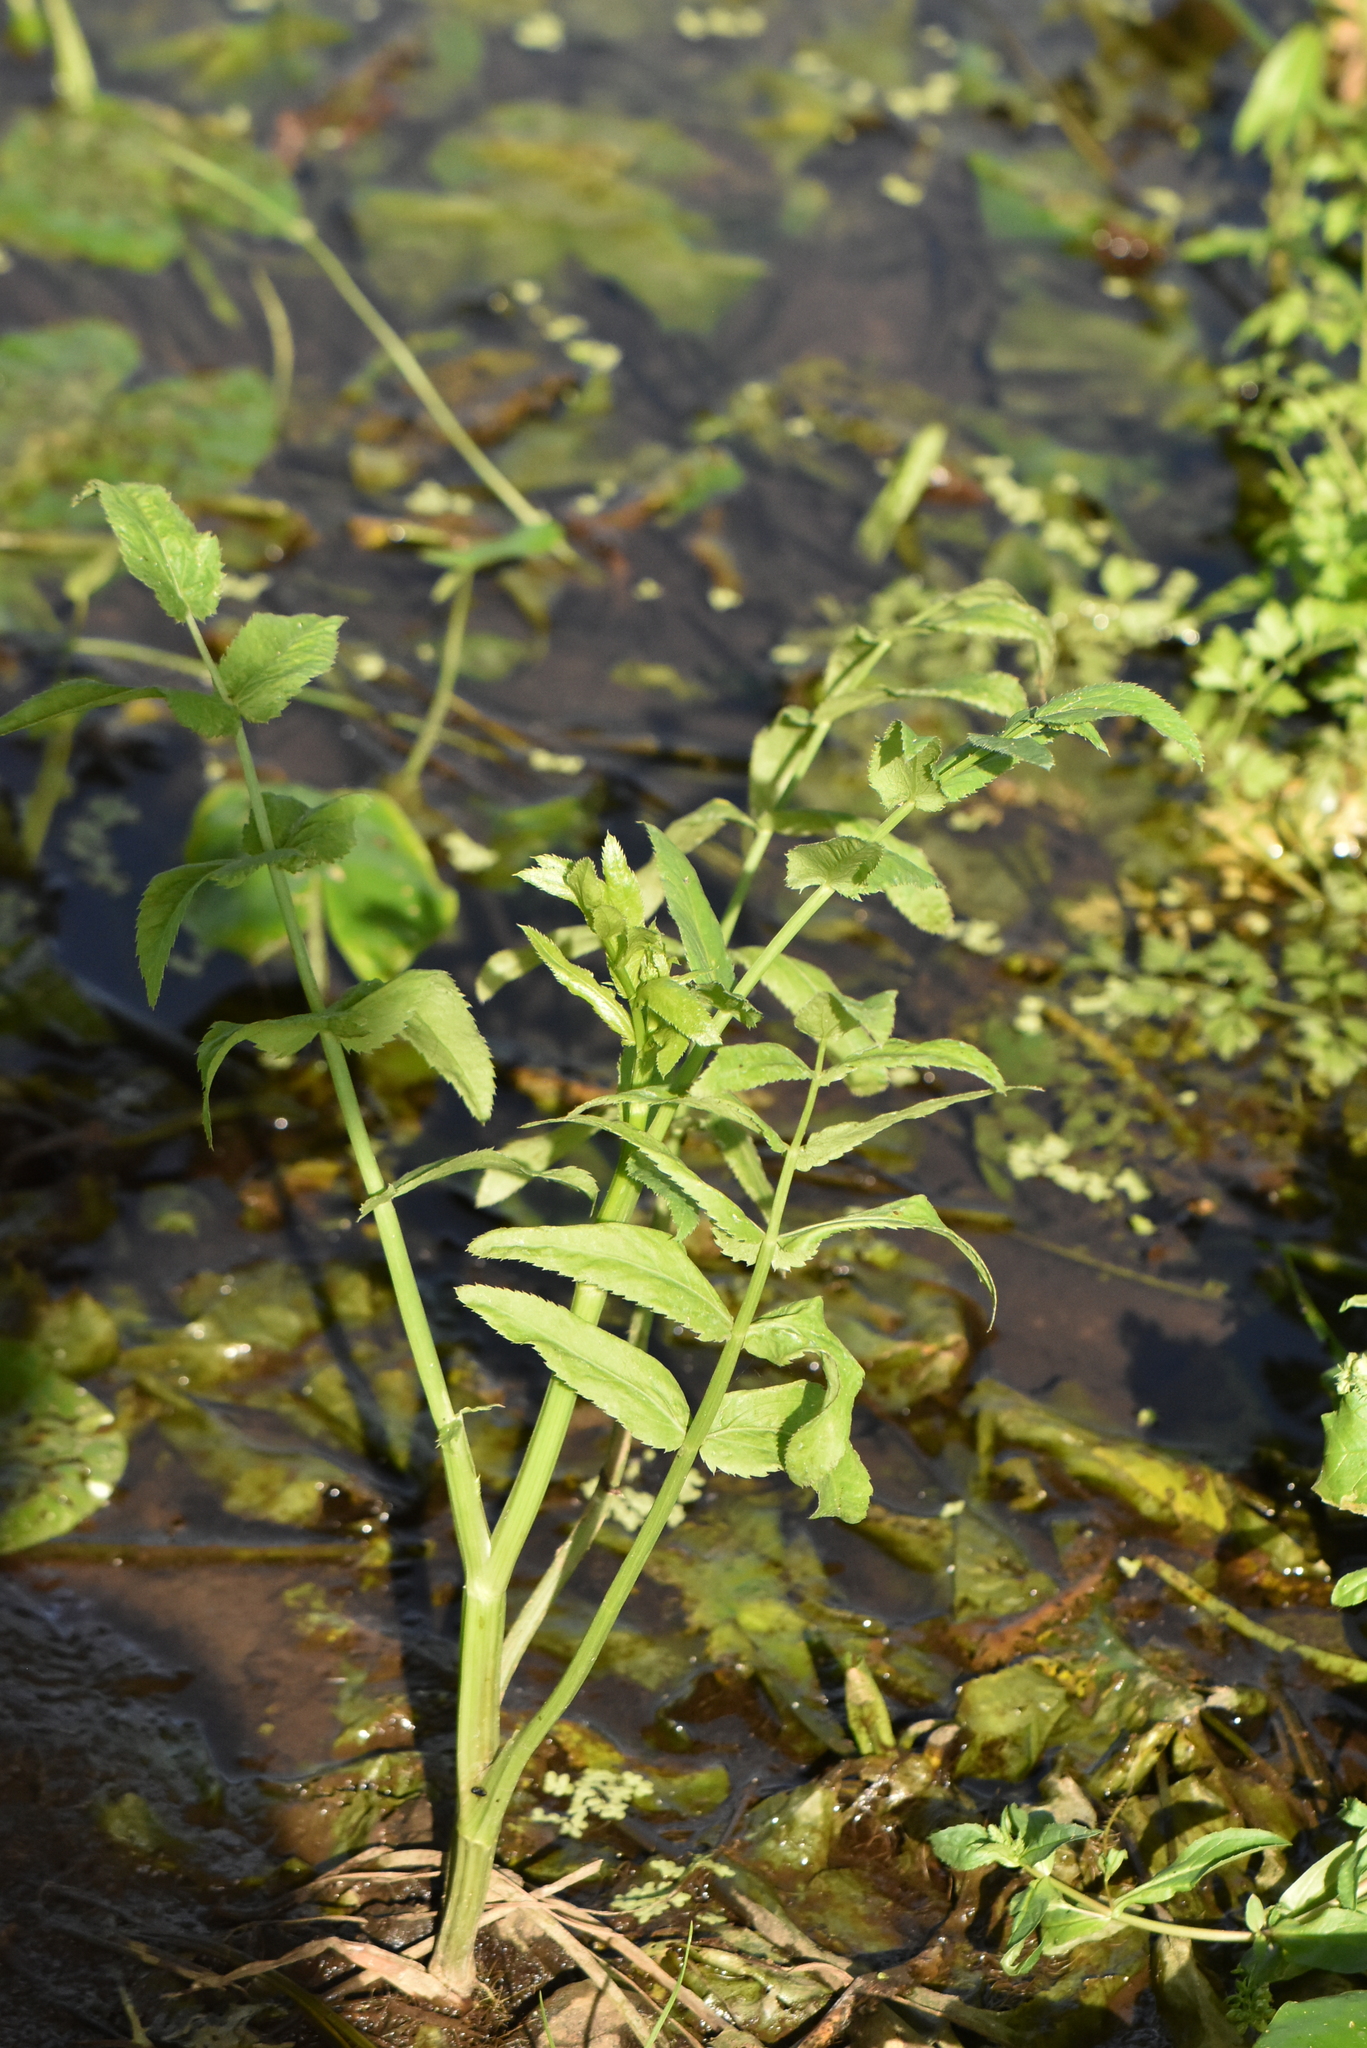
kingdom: Plantae
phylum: Tracheophyta
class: Magnoliopsida
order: Apiales
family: Apiaceae
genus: Sium
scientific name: Sium latifolium
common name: Greater water-parsnip
